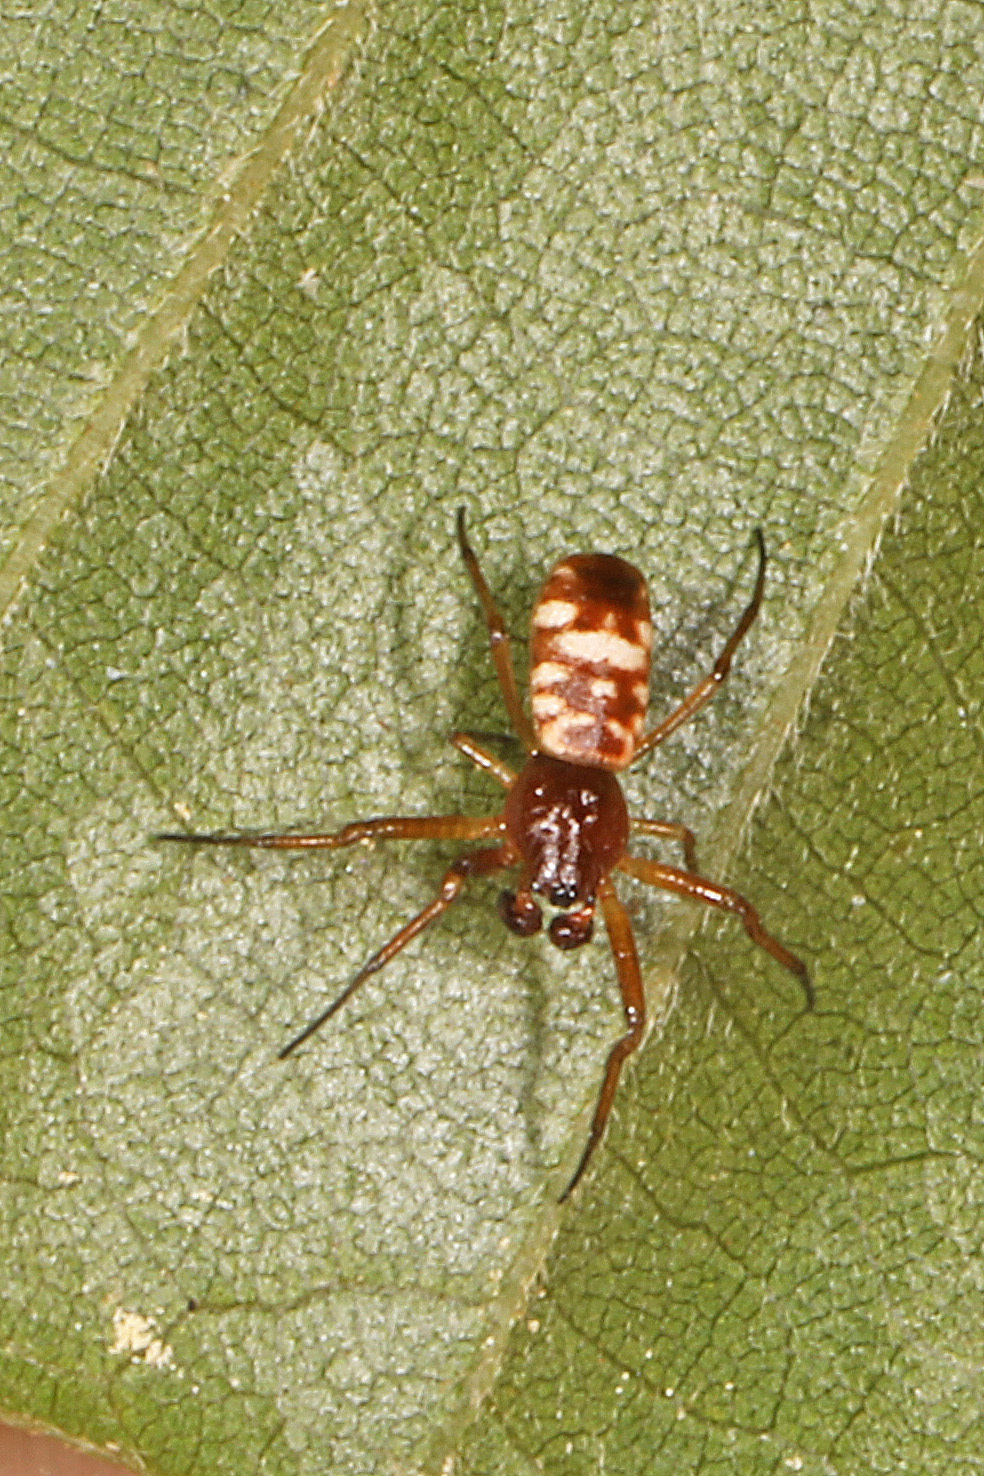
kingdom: Animalia
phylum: Arthropoda
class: Arachnida
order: Araneae
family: Araneidae
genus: Micrathena
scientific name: Micrathena mitrata
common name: Orb weavers
